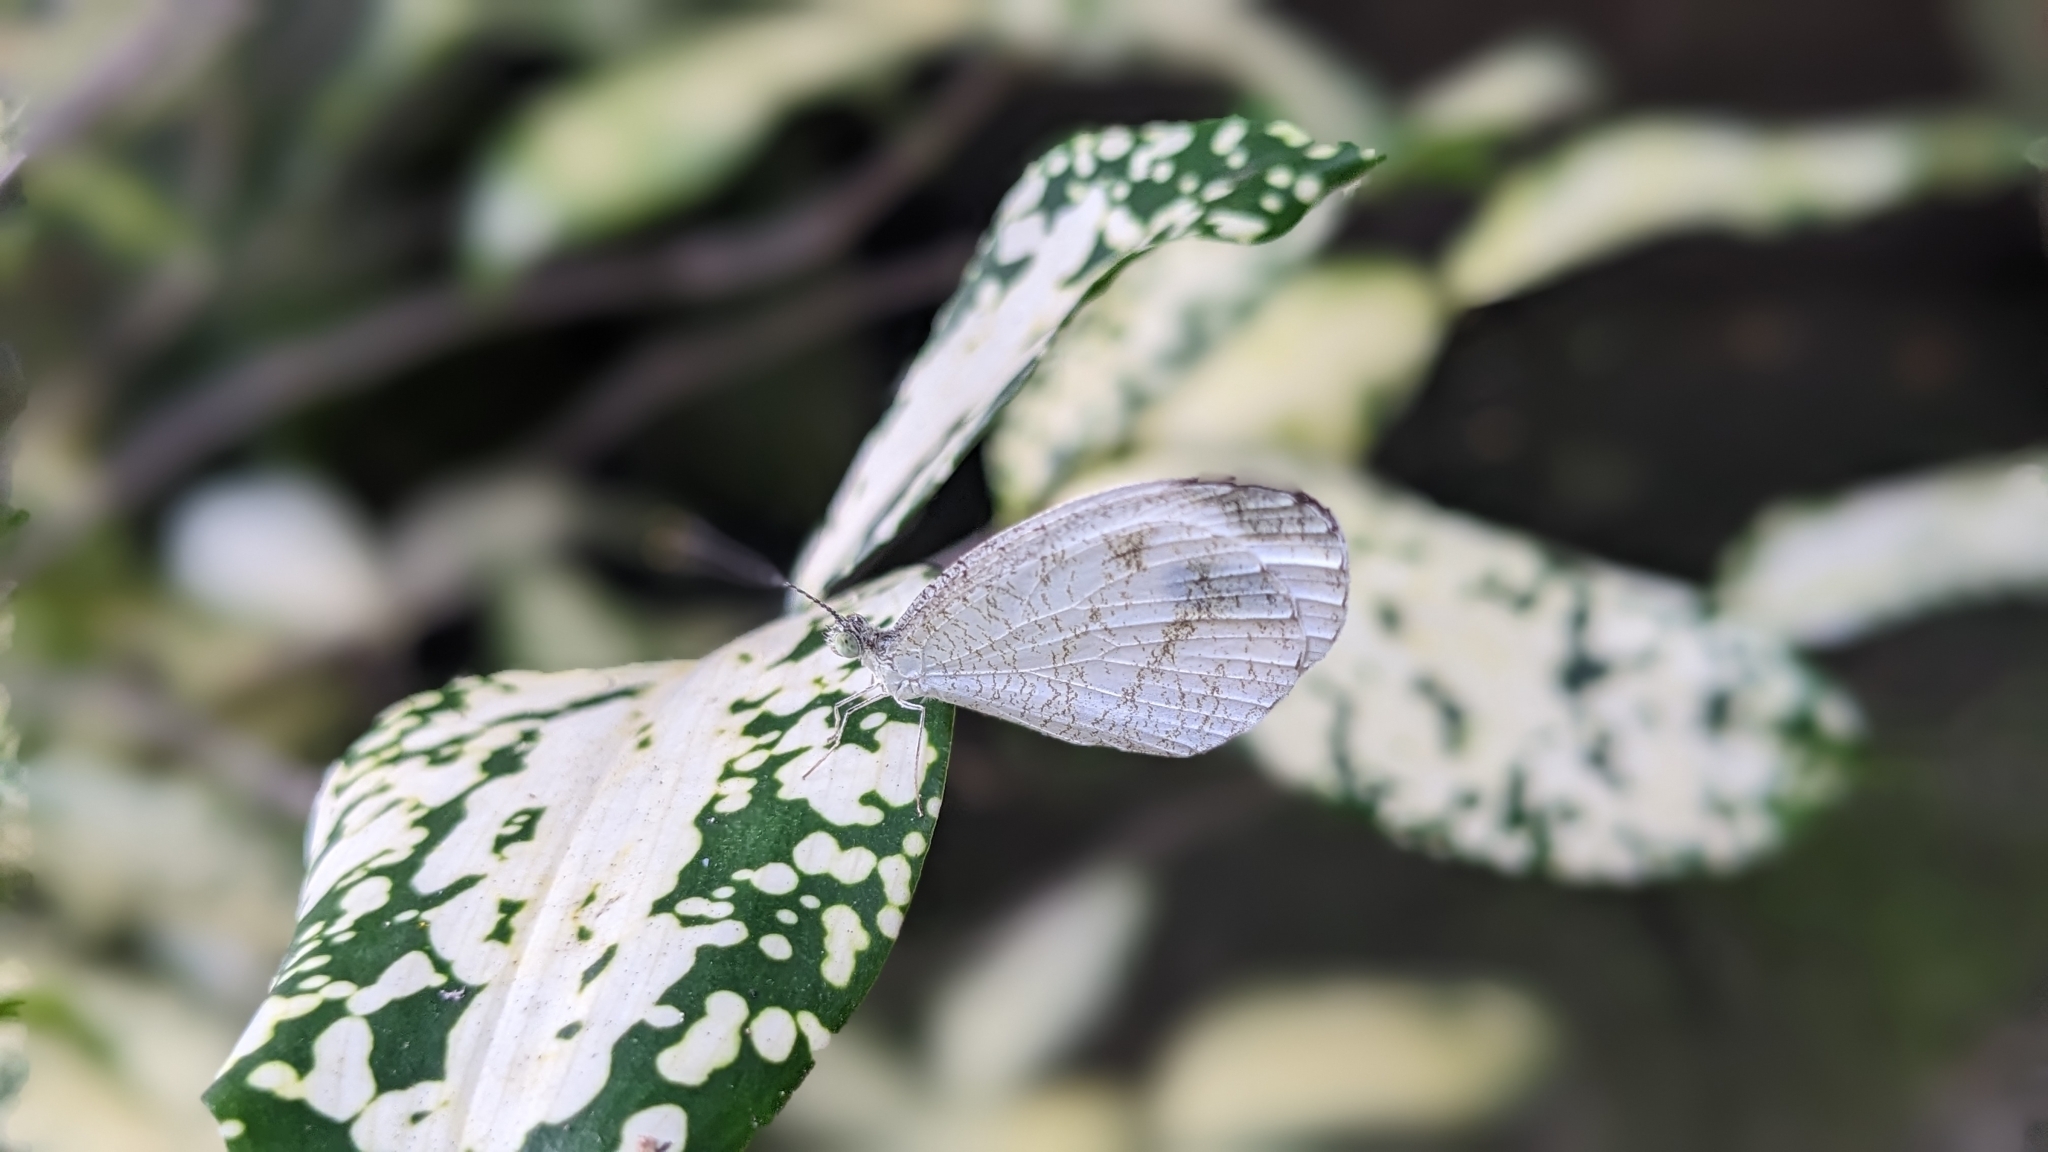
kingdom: Animalia
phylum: Arthropoda
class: Insecta
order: Lepidoptera
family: Pieridae
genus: Leptosia
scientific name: Leptosia nina
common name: Psyche
